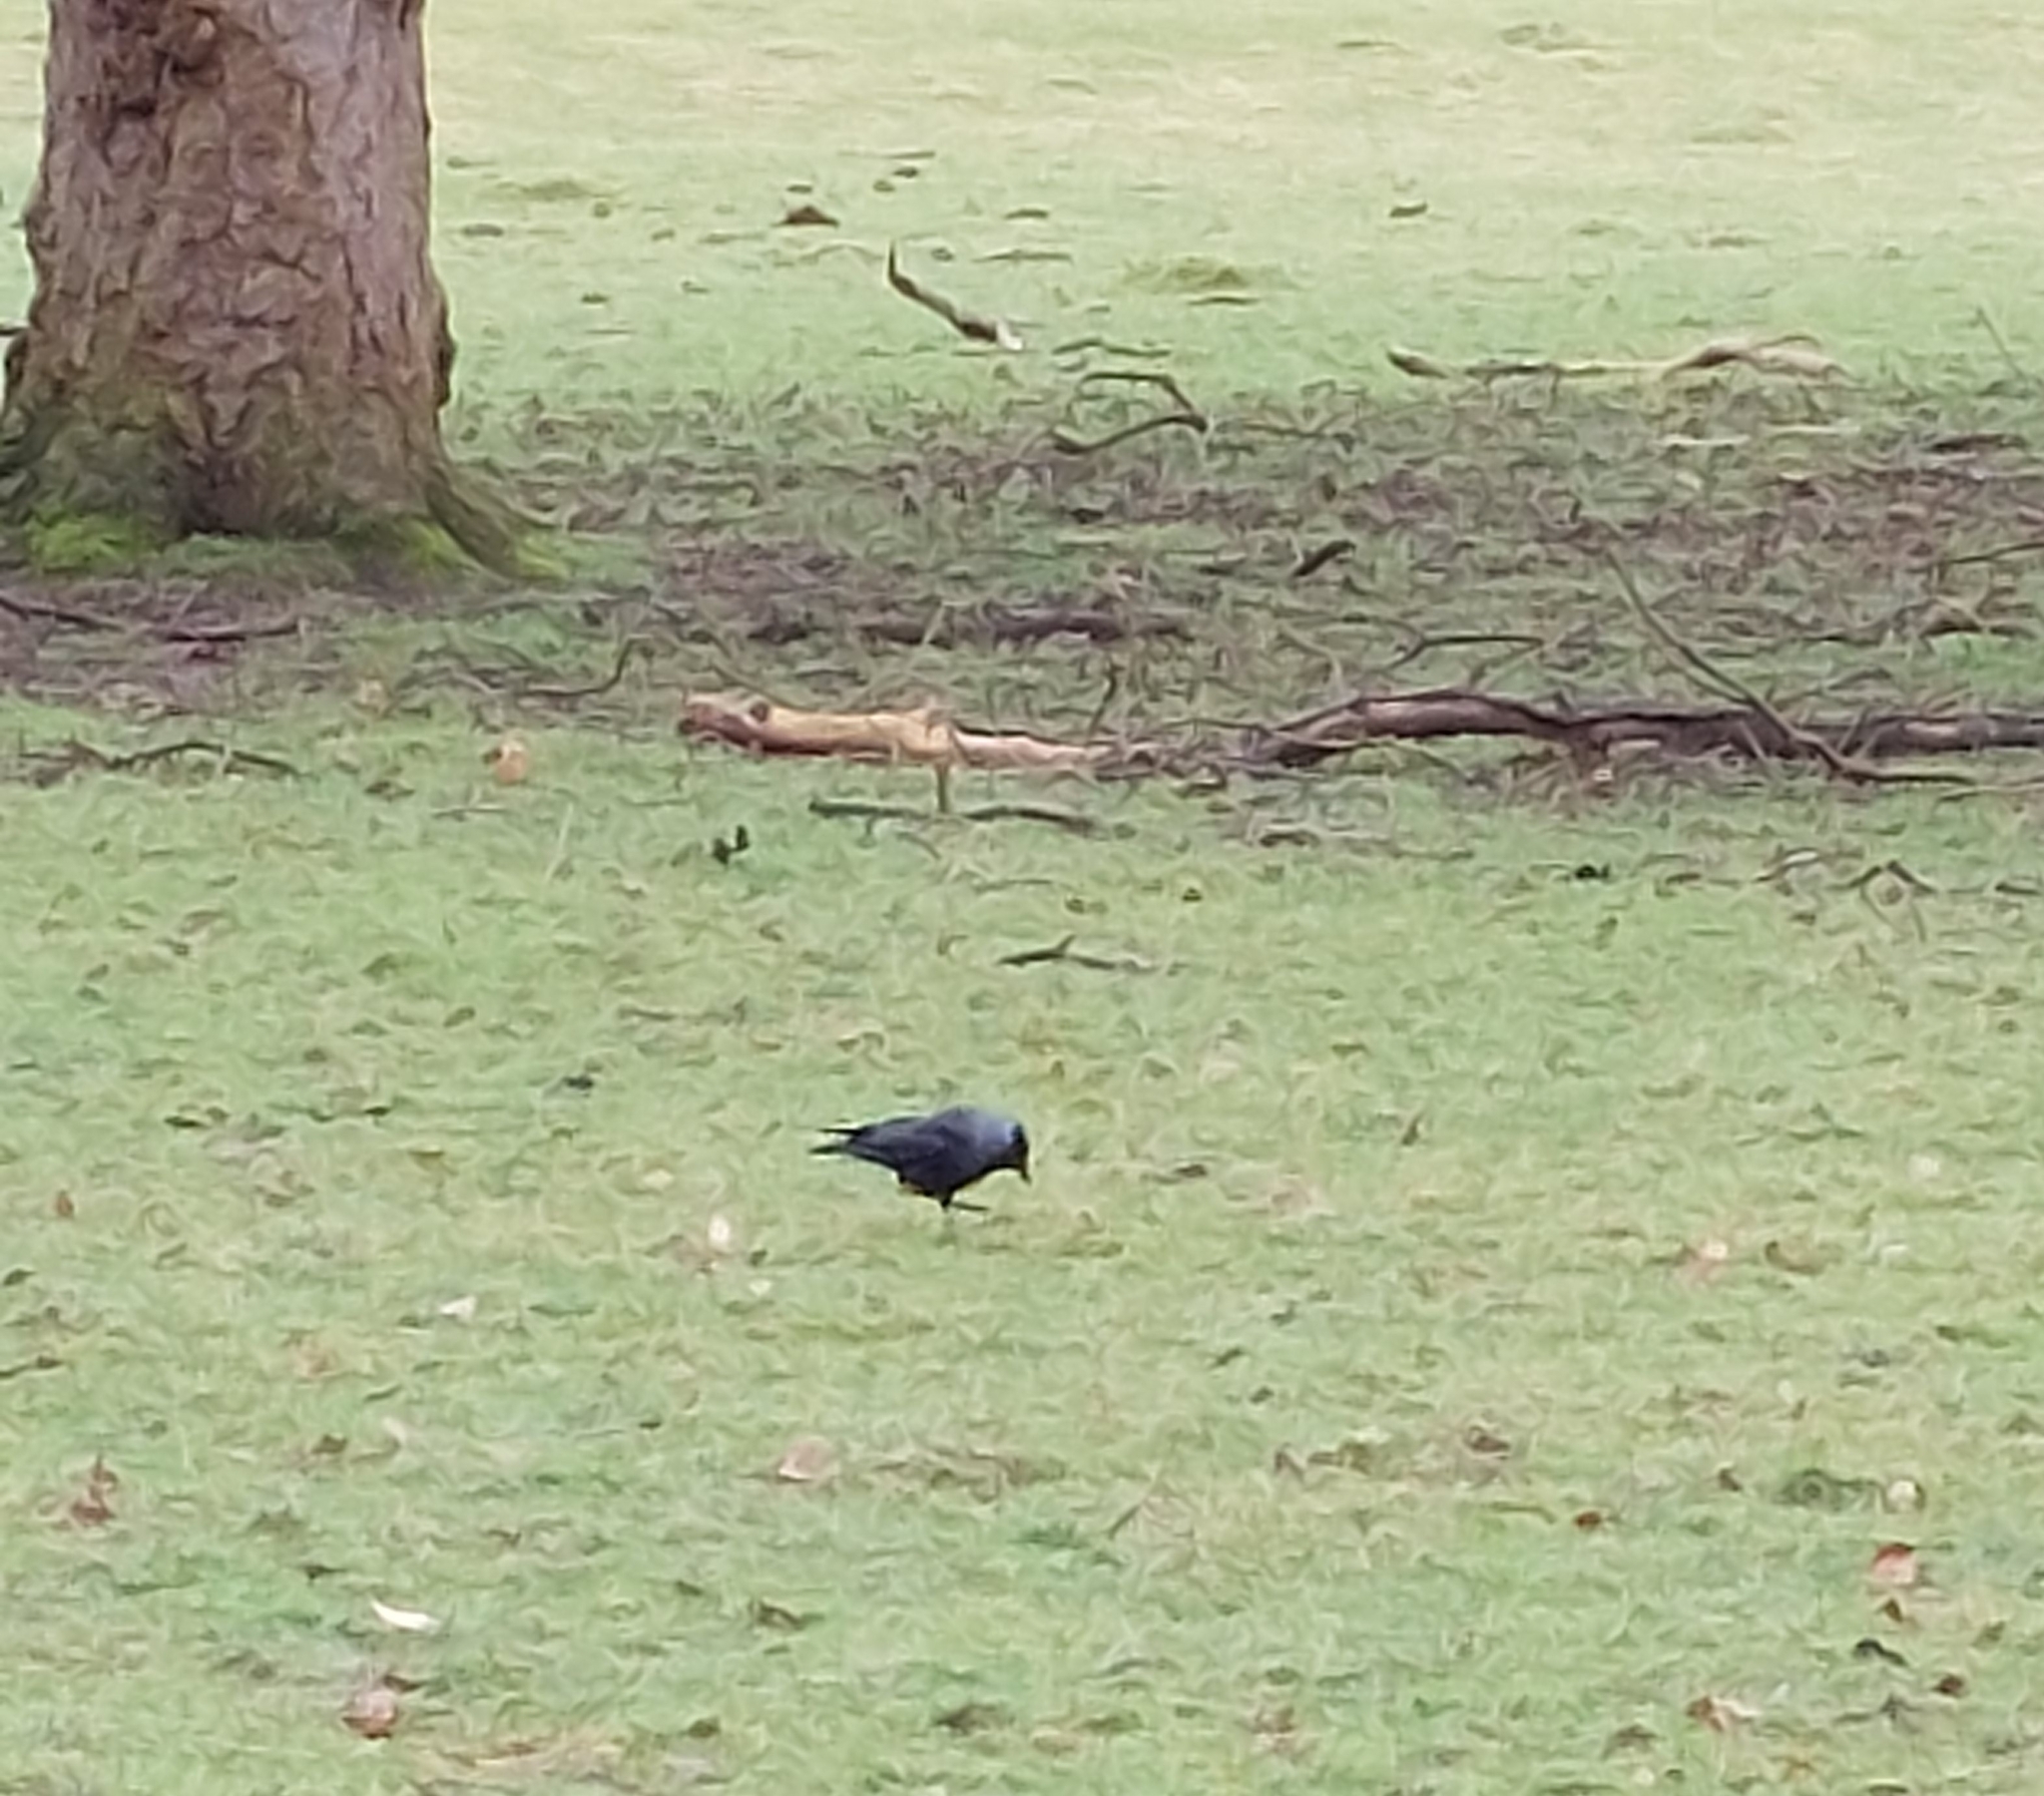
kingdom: Animalia
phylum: Chordata
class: Aves
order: Passeriformes
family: Corvidae
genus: Coloeus
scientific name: Coloeus monedula
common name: Western jackdaw
